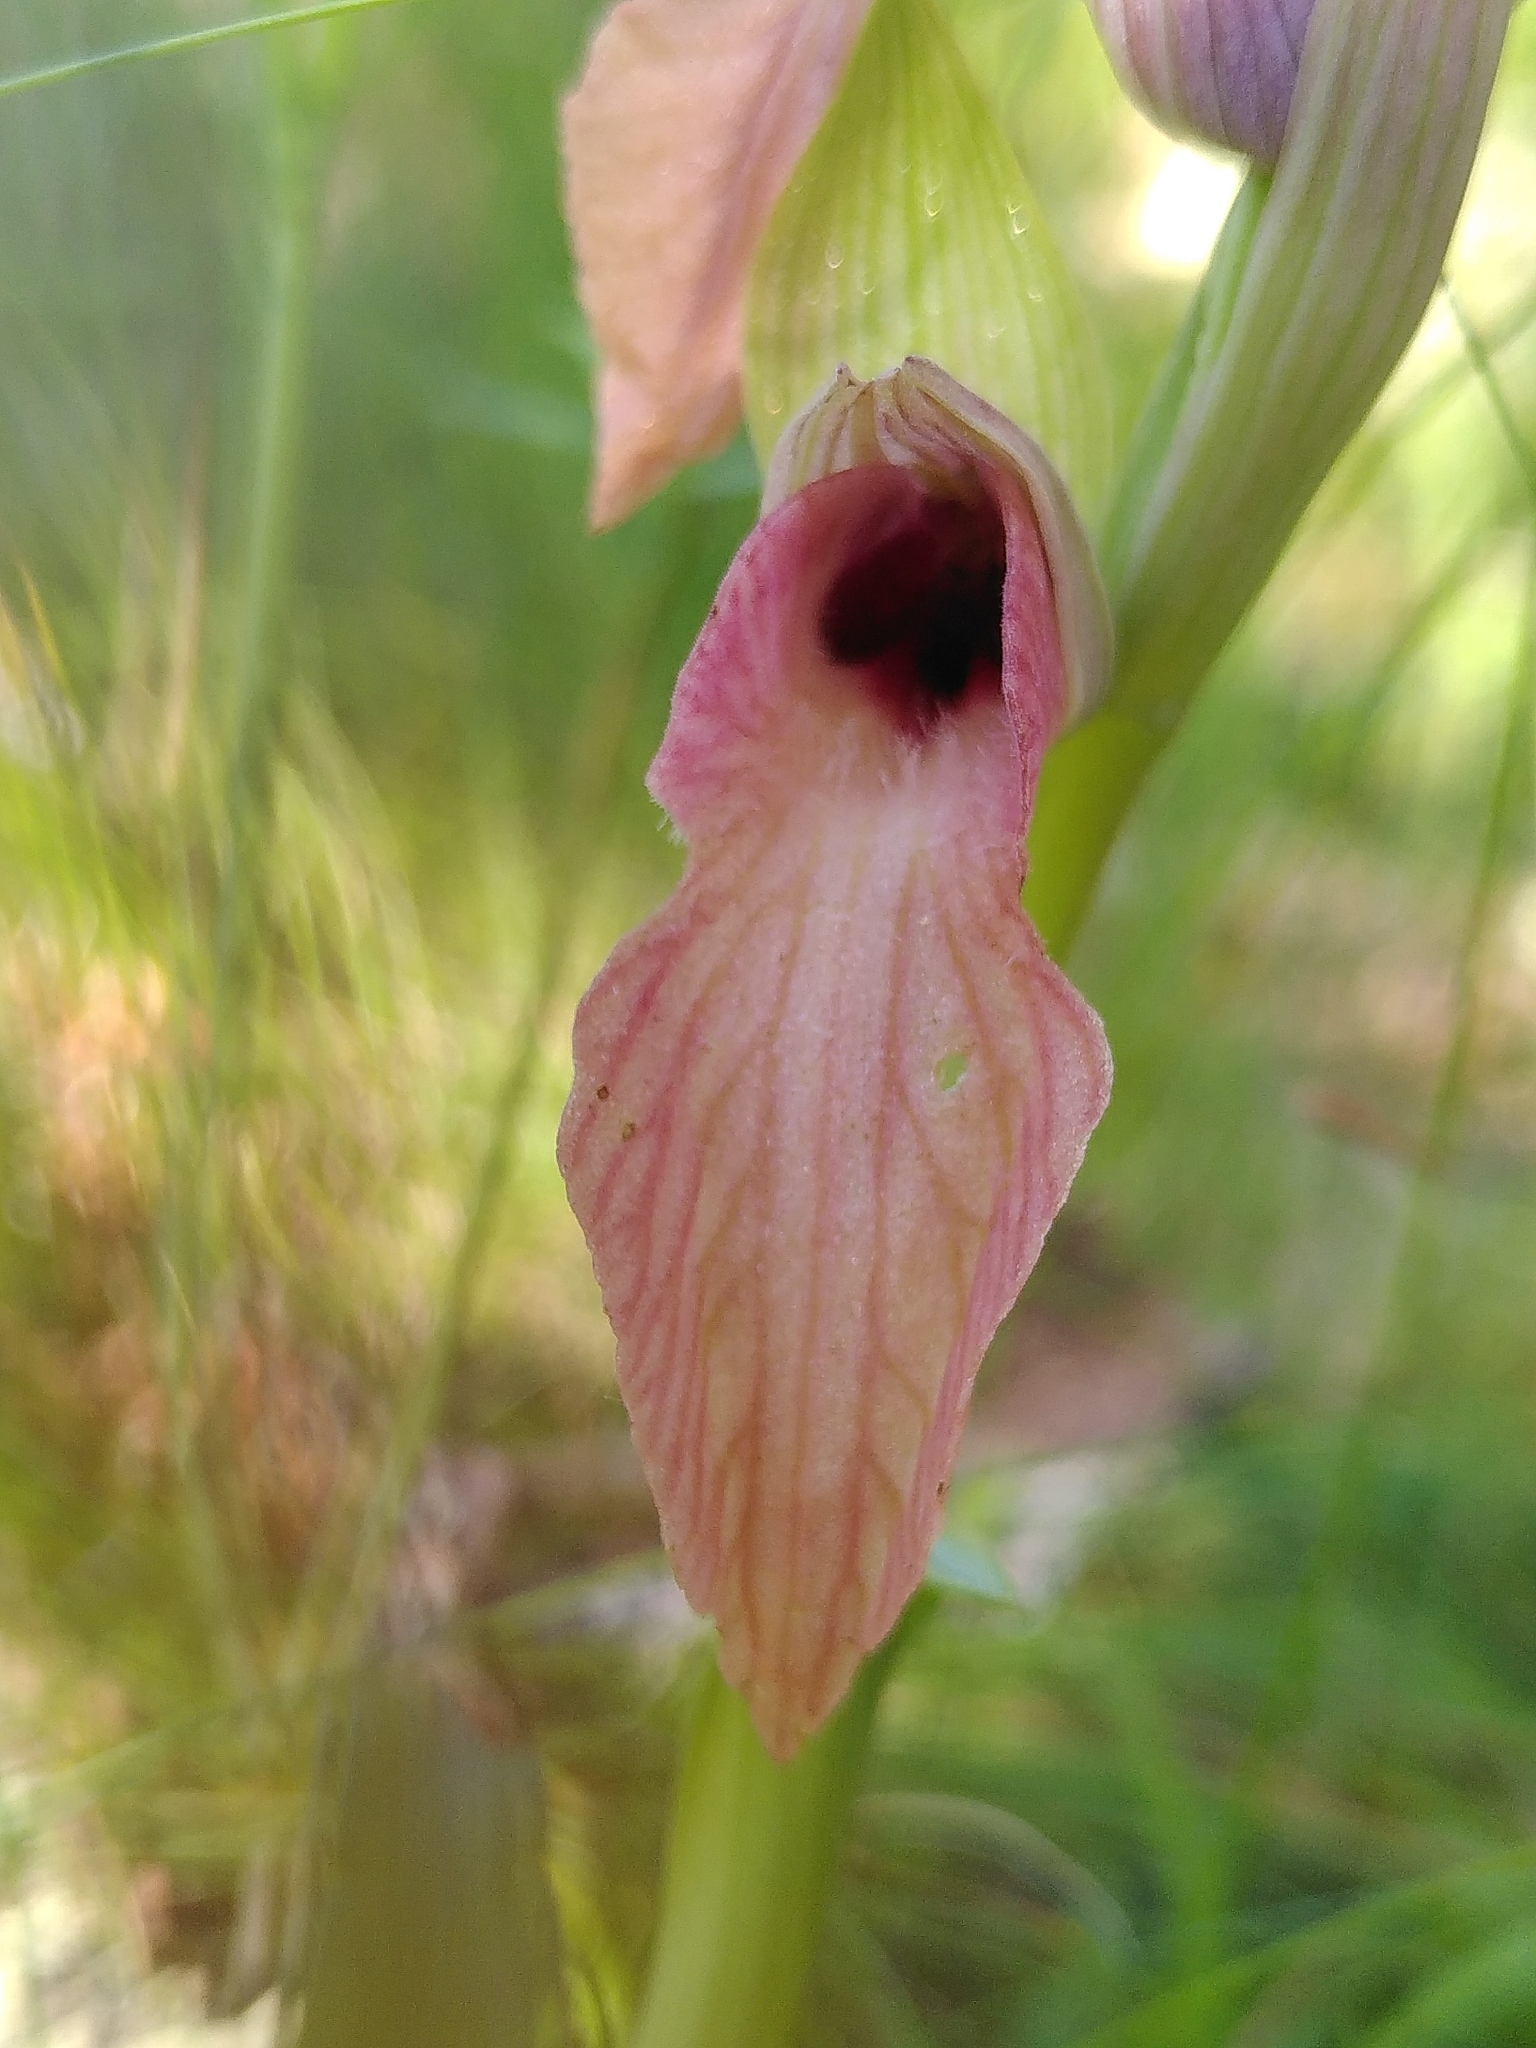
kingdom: Plantae
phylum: Tracheophyta
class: Liliopsida
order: Asparagales
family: Orchidaceae
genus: Serapias
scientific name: Serapias neglecta
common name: Neglected serapias
